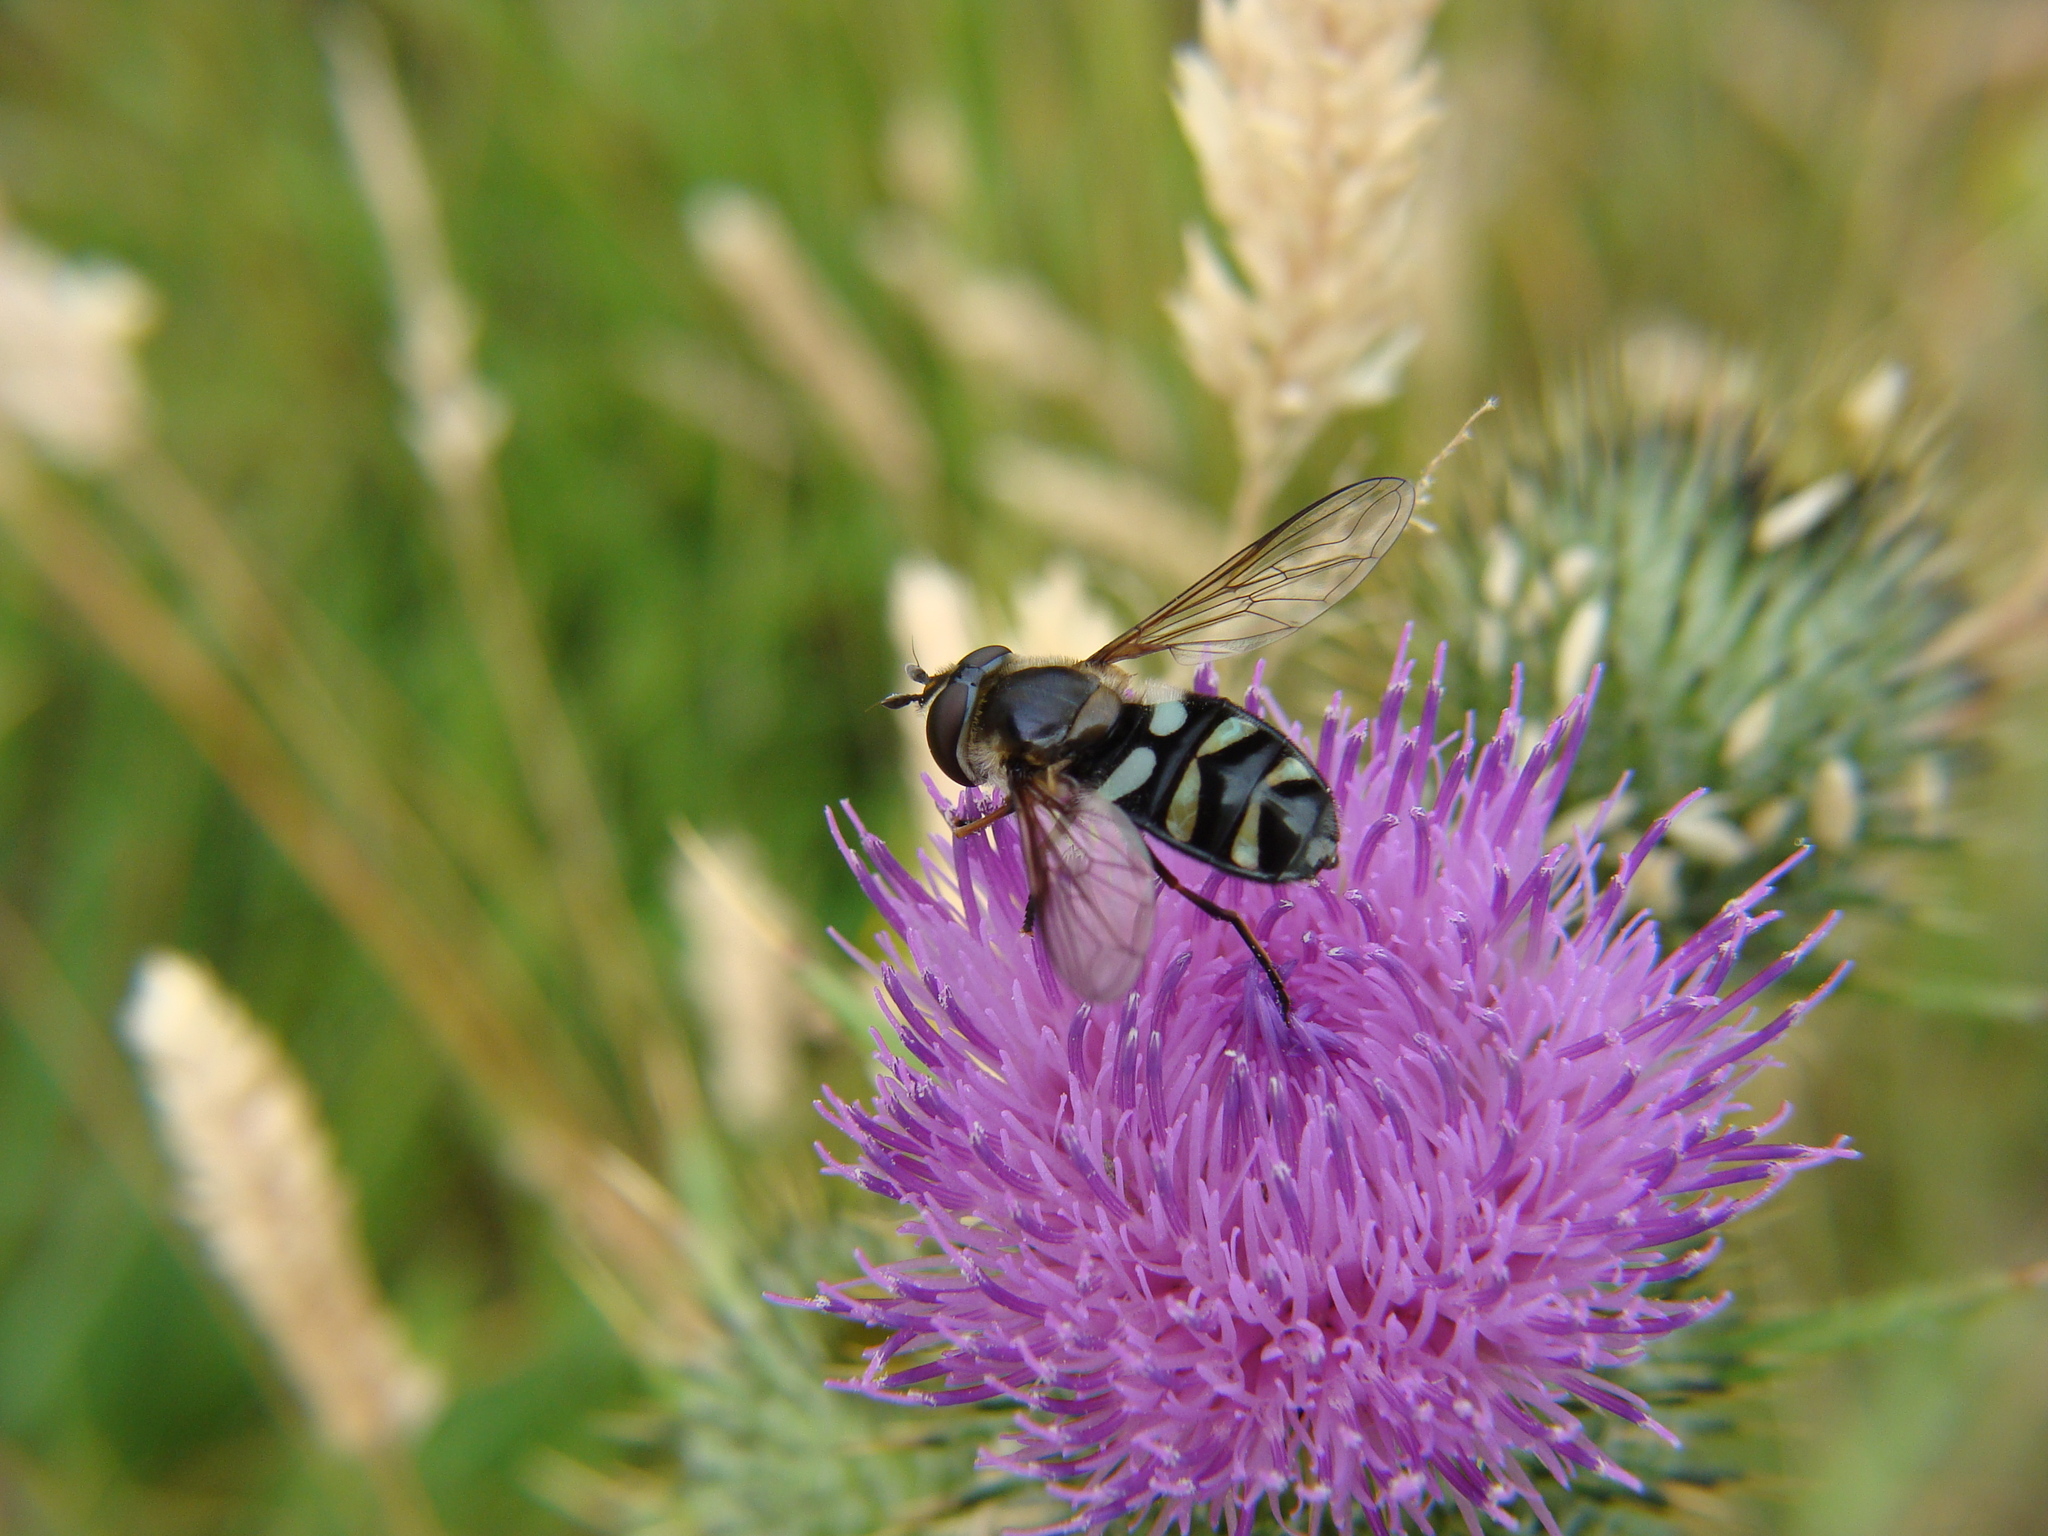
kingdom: Animalia
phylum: Arthropoda
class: Insecta
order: Diptera
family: Syrphidae
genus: Didea
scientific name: Didea alneti
